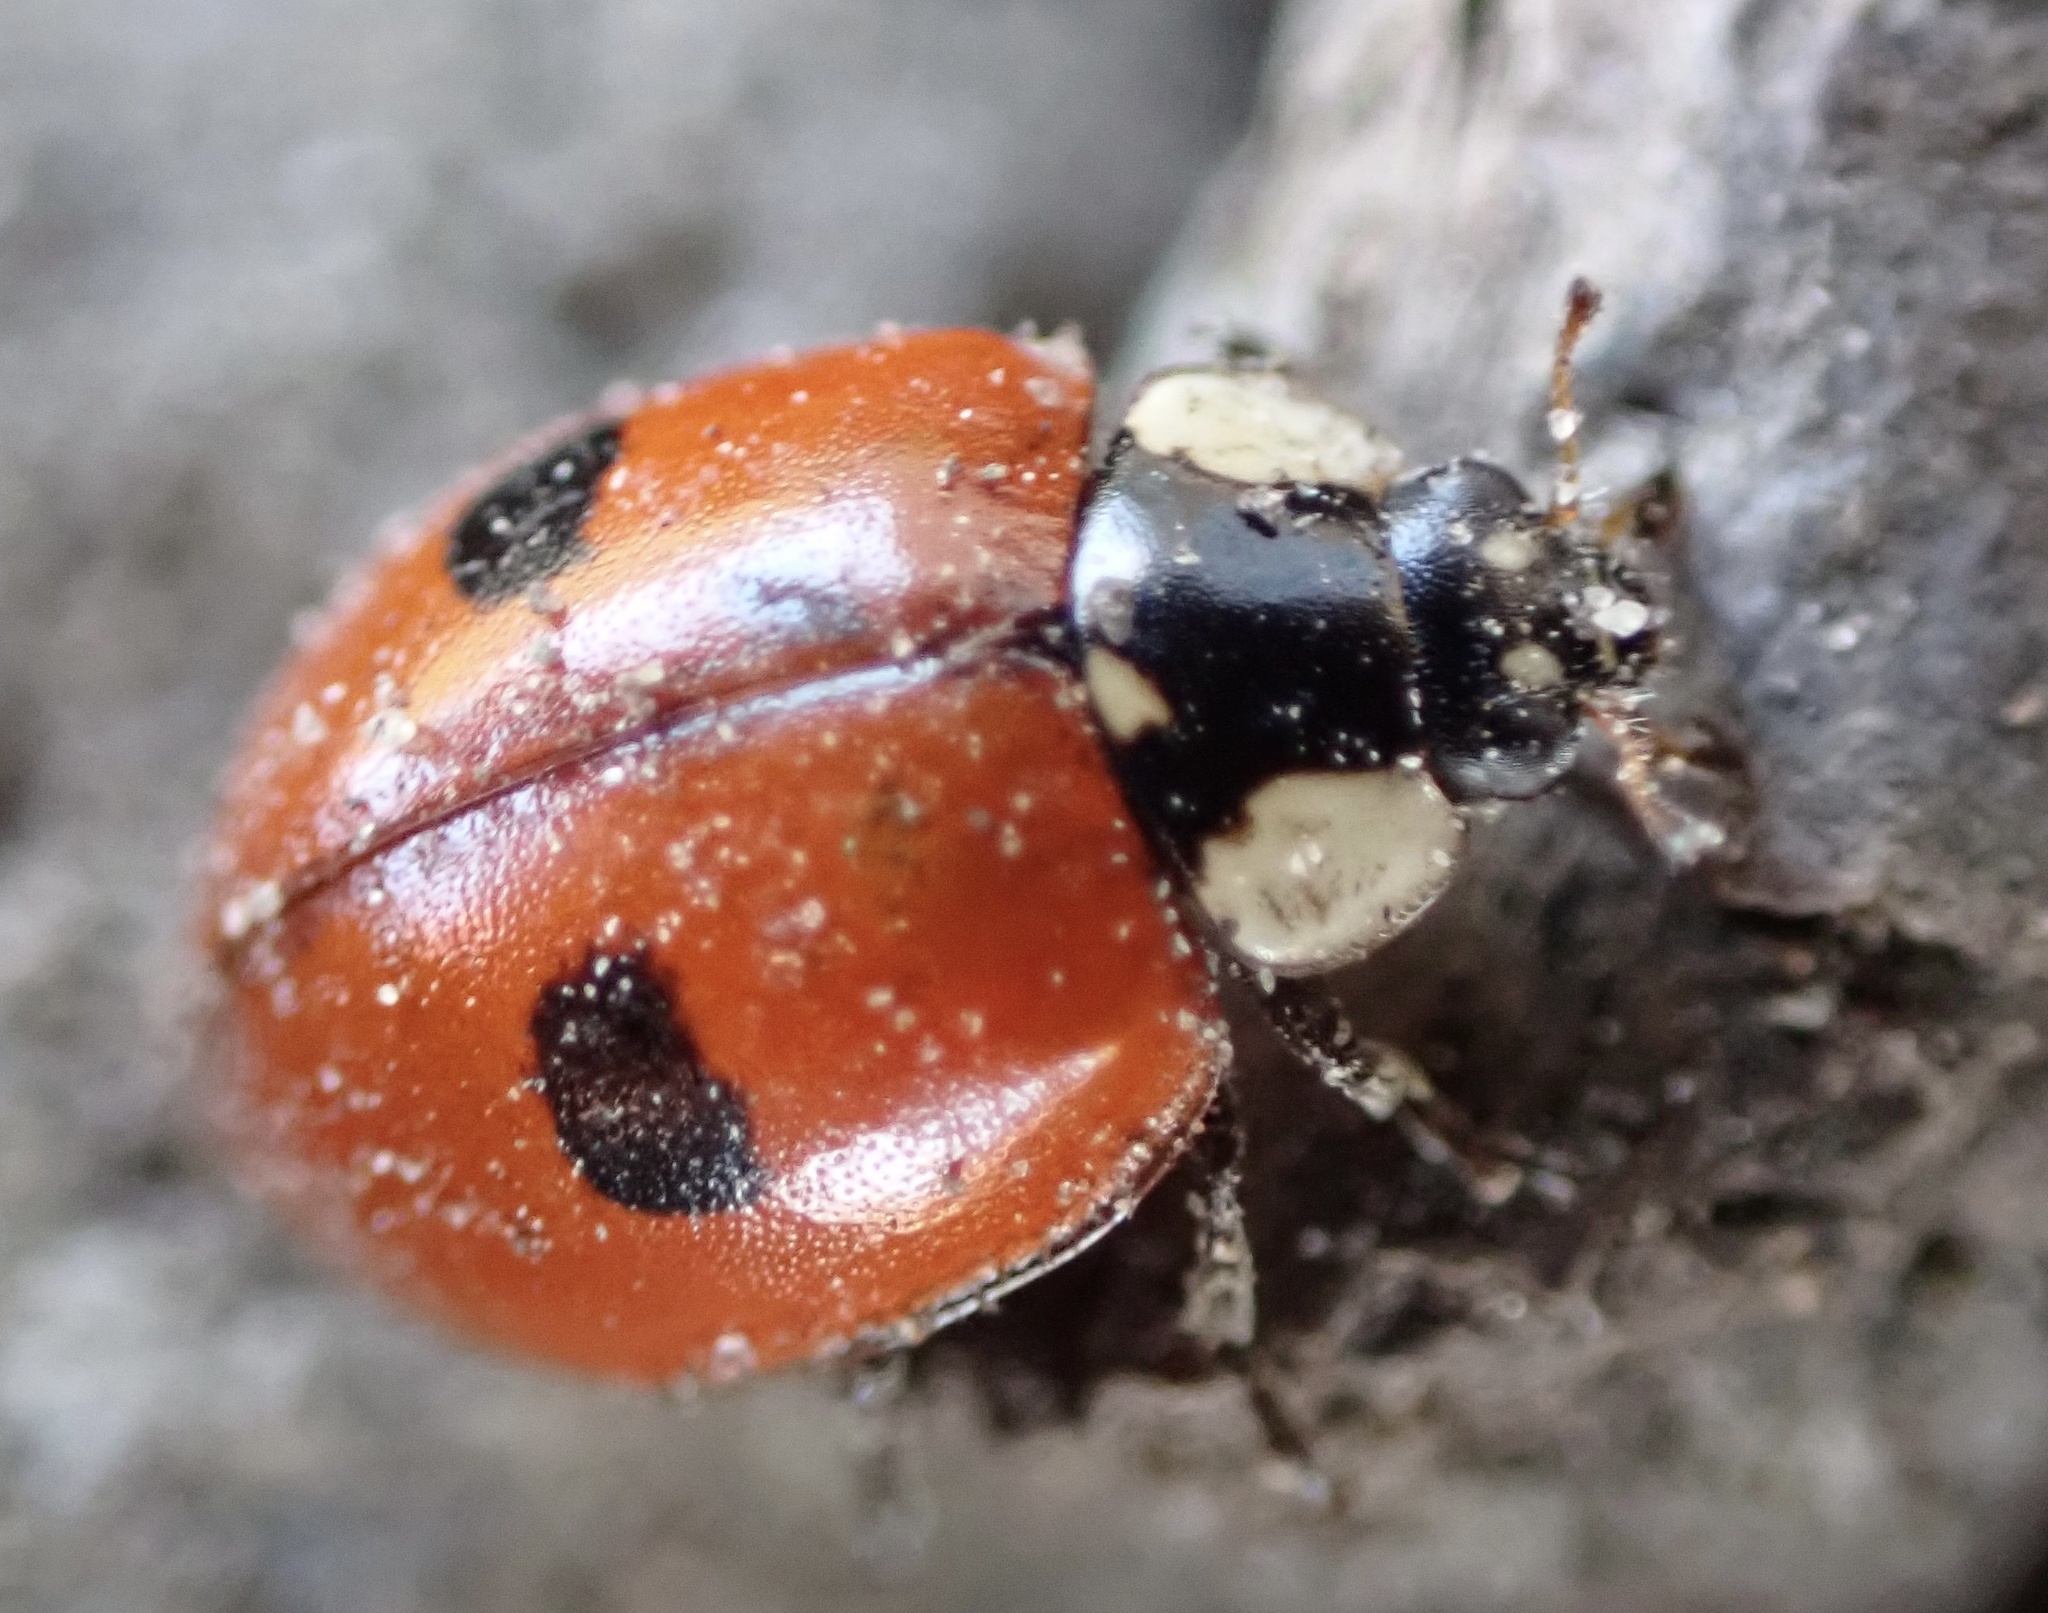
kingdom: Animalia
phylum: Arthropoda
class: Insecta
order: Coleoptera
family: Coccinellidae
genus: Adalia
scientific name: Adalia bipunctata
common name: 2-spot ladybird
